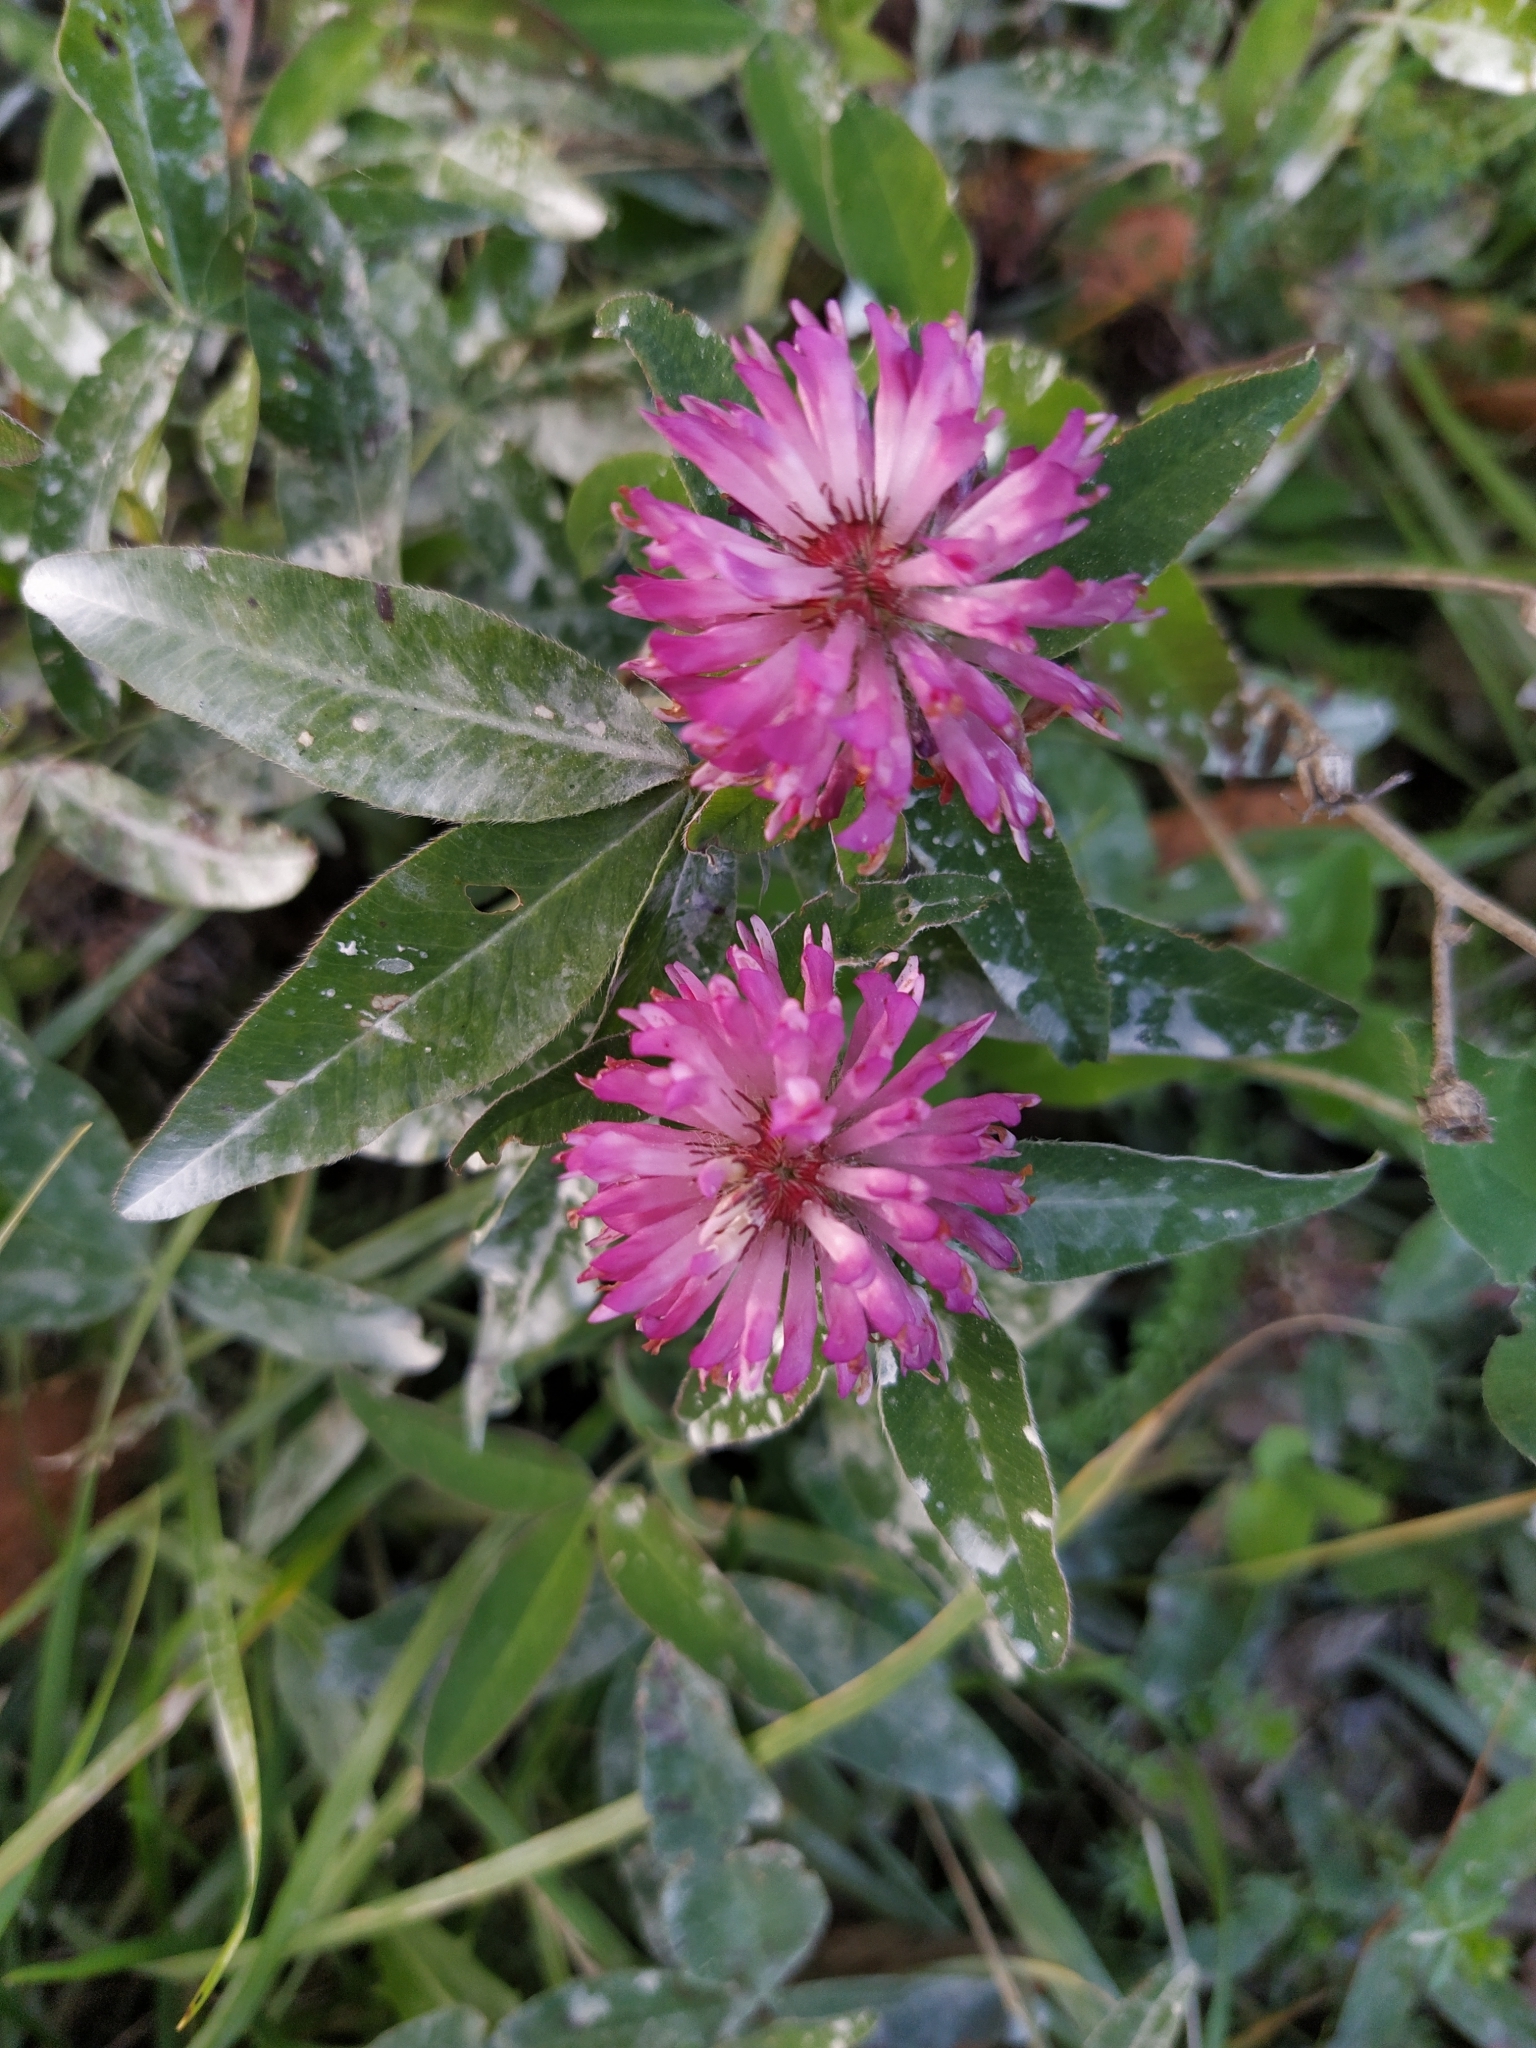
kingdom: Plantae
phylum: Tracheophyta
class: Magnoliopsida
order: Fabales
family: Fabaceae
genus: Trifolium
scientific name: Trifolium medium
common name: Zigzag clover
